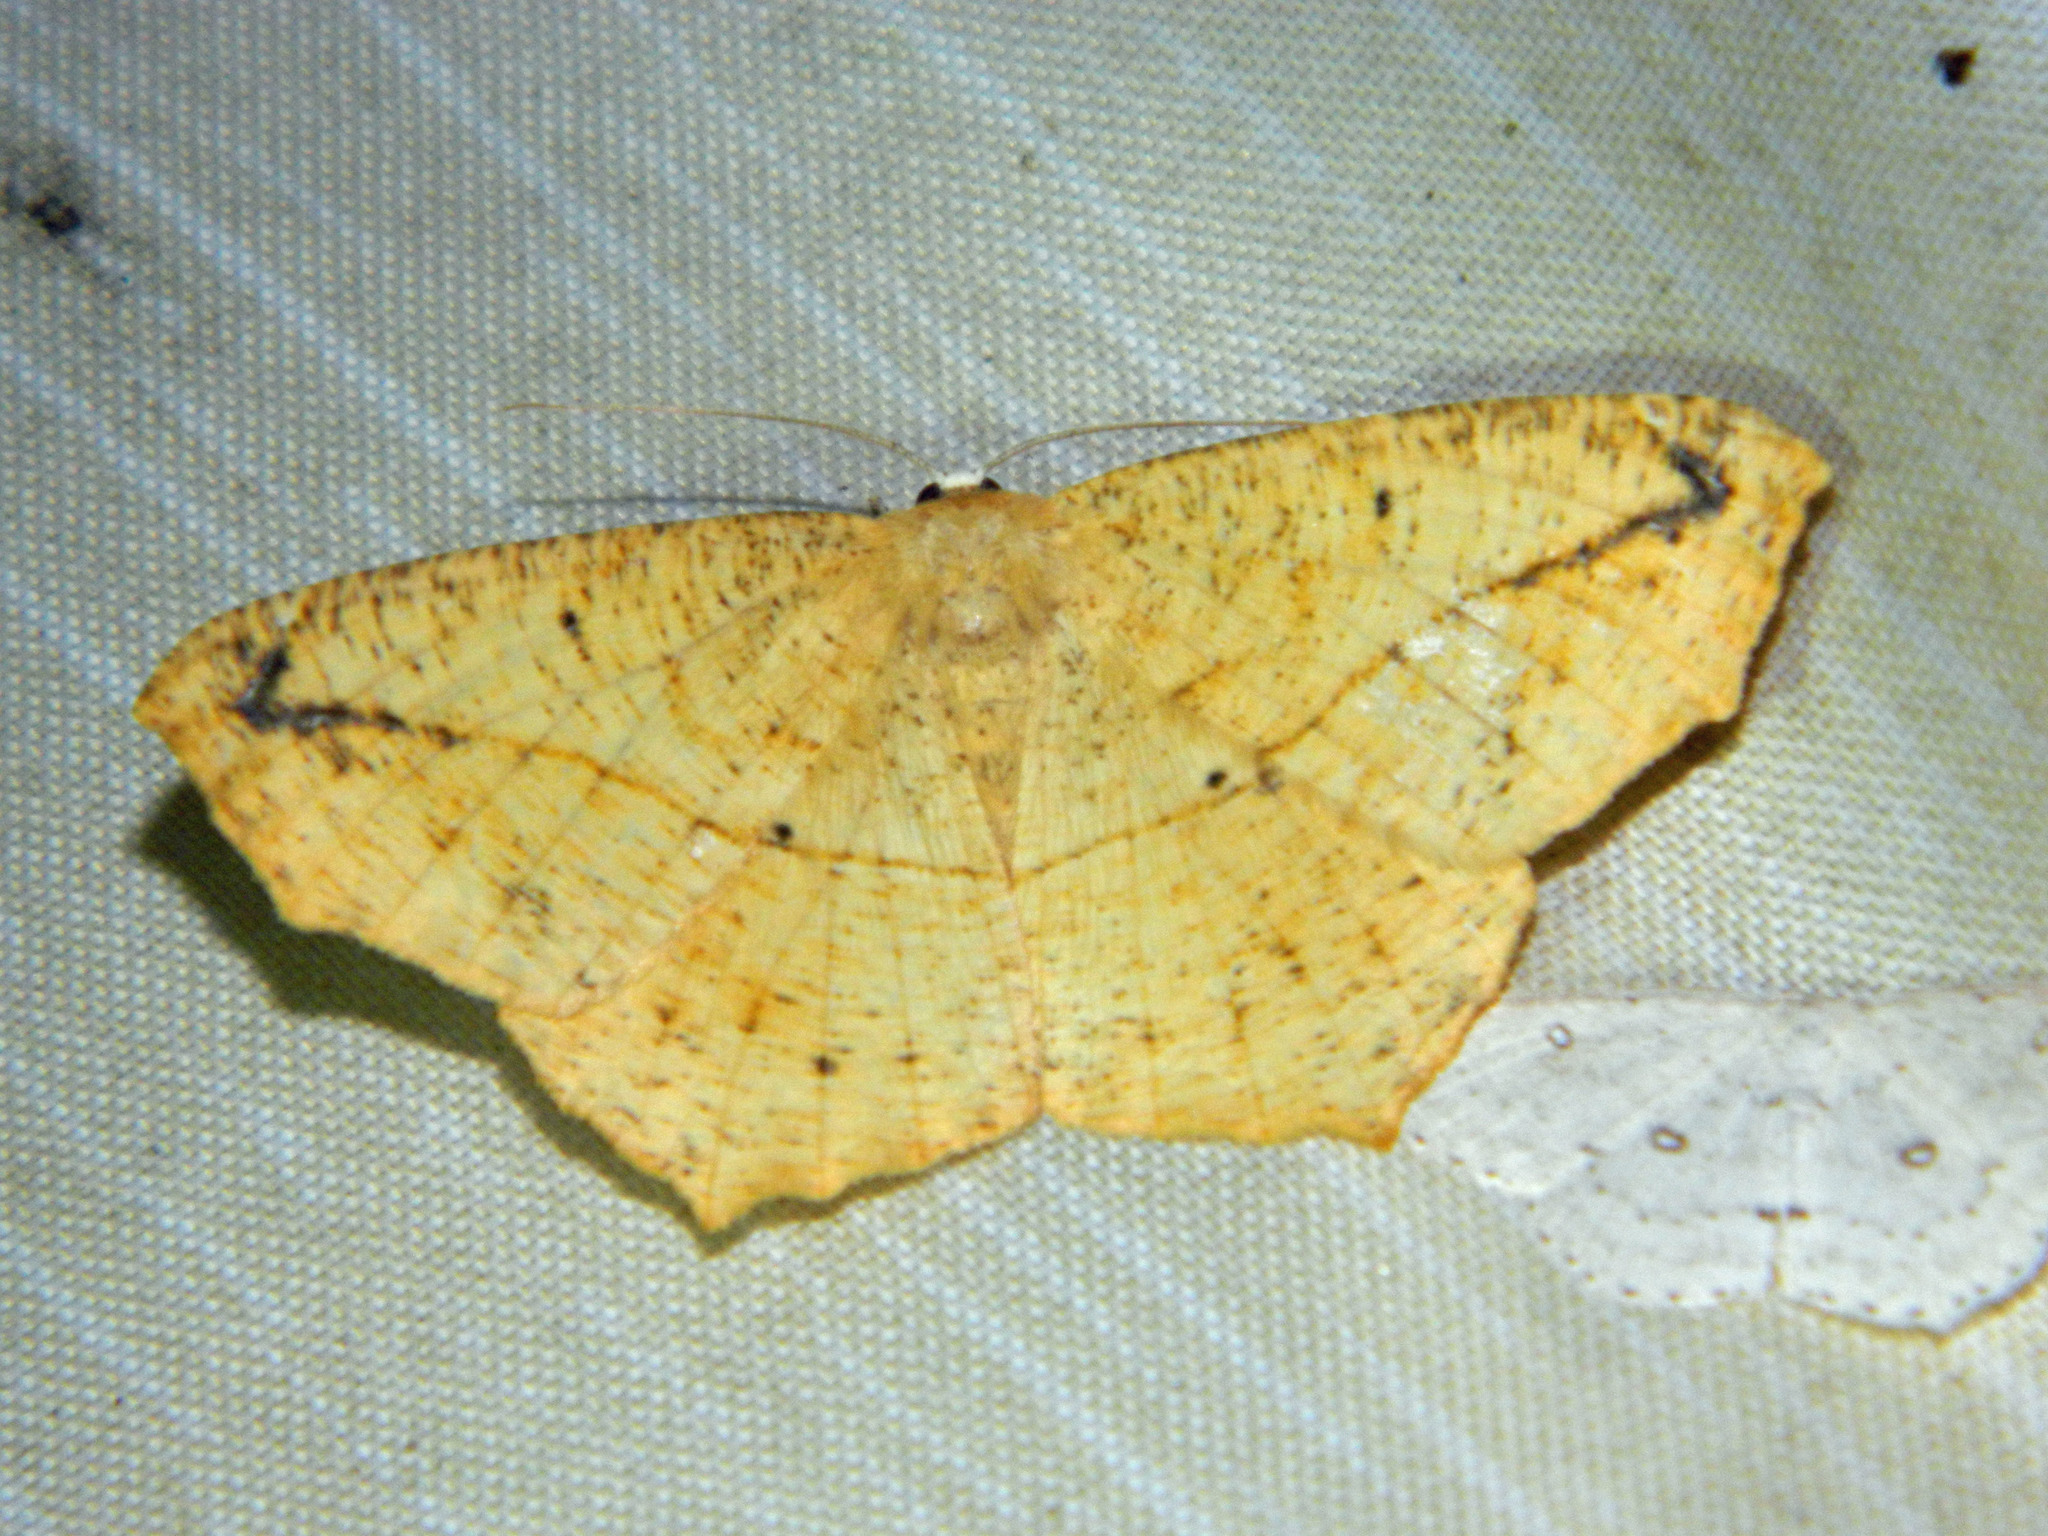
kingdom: Animalia
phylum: Arthropoda
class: Insecta
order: Lepidoptera
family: Geometridae
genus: Prochoerodes
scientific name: Prochoerodes lineola
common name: Large maple spanworm
